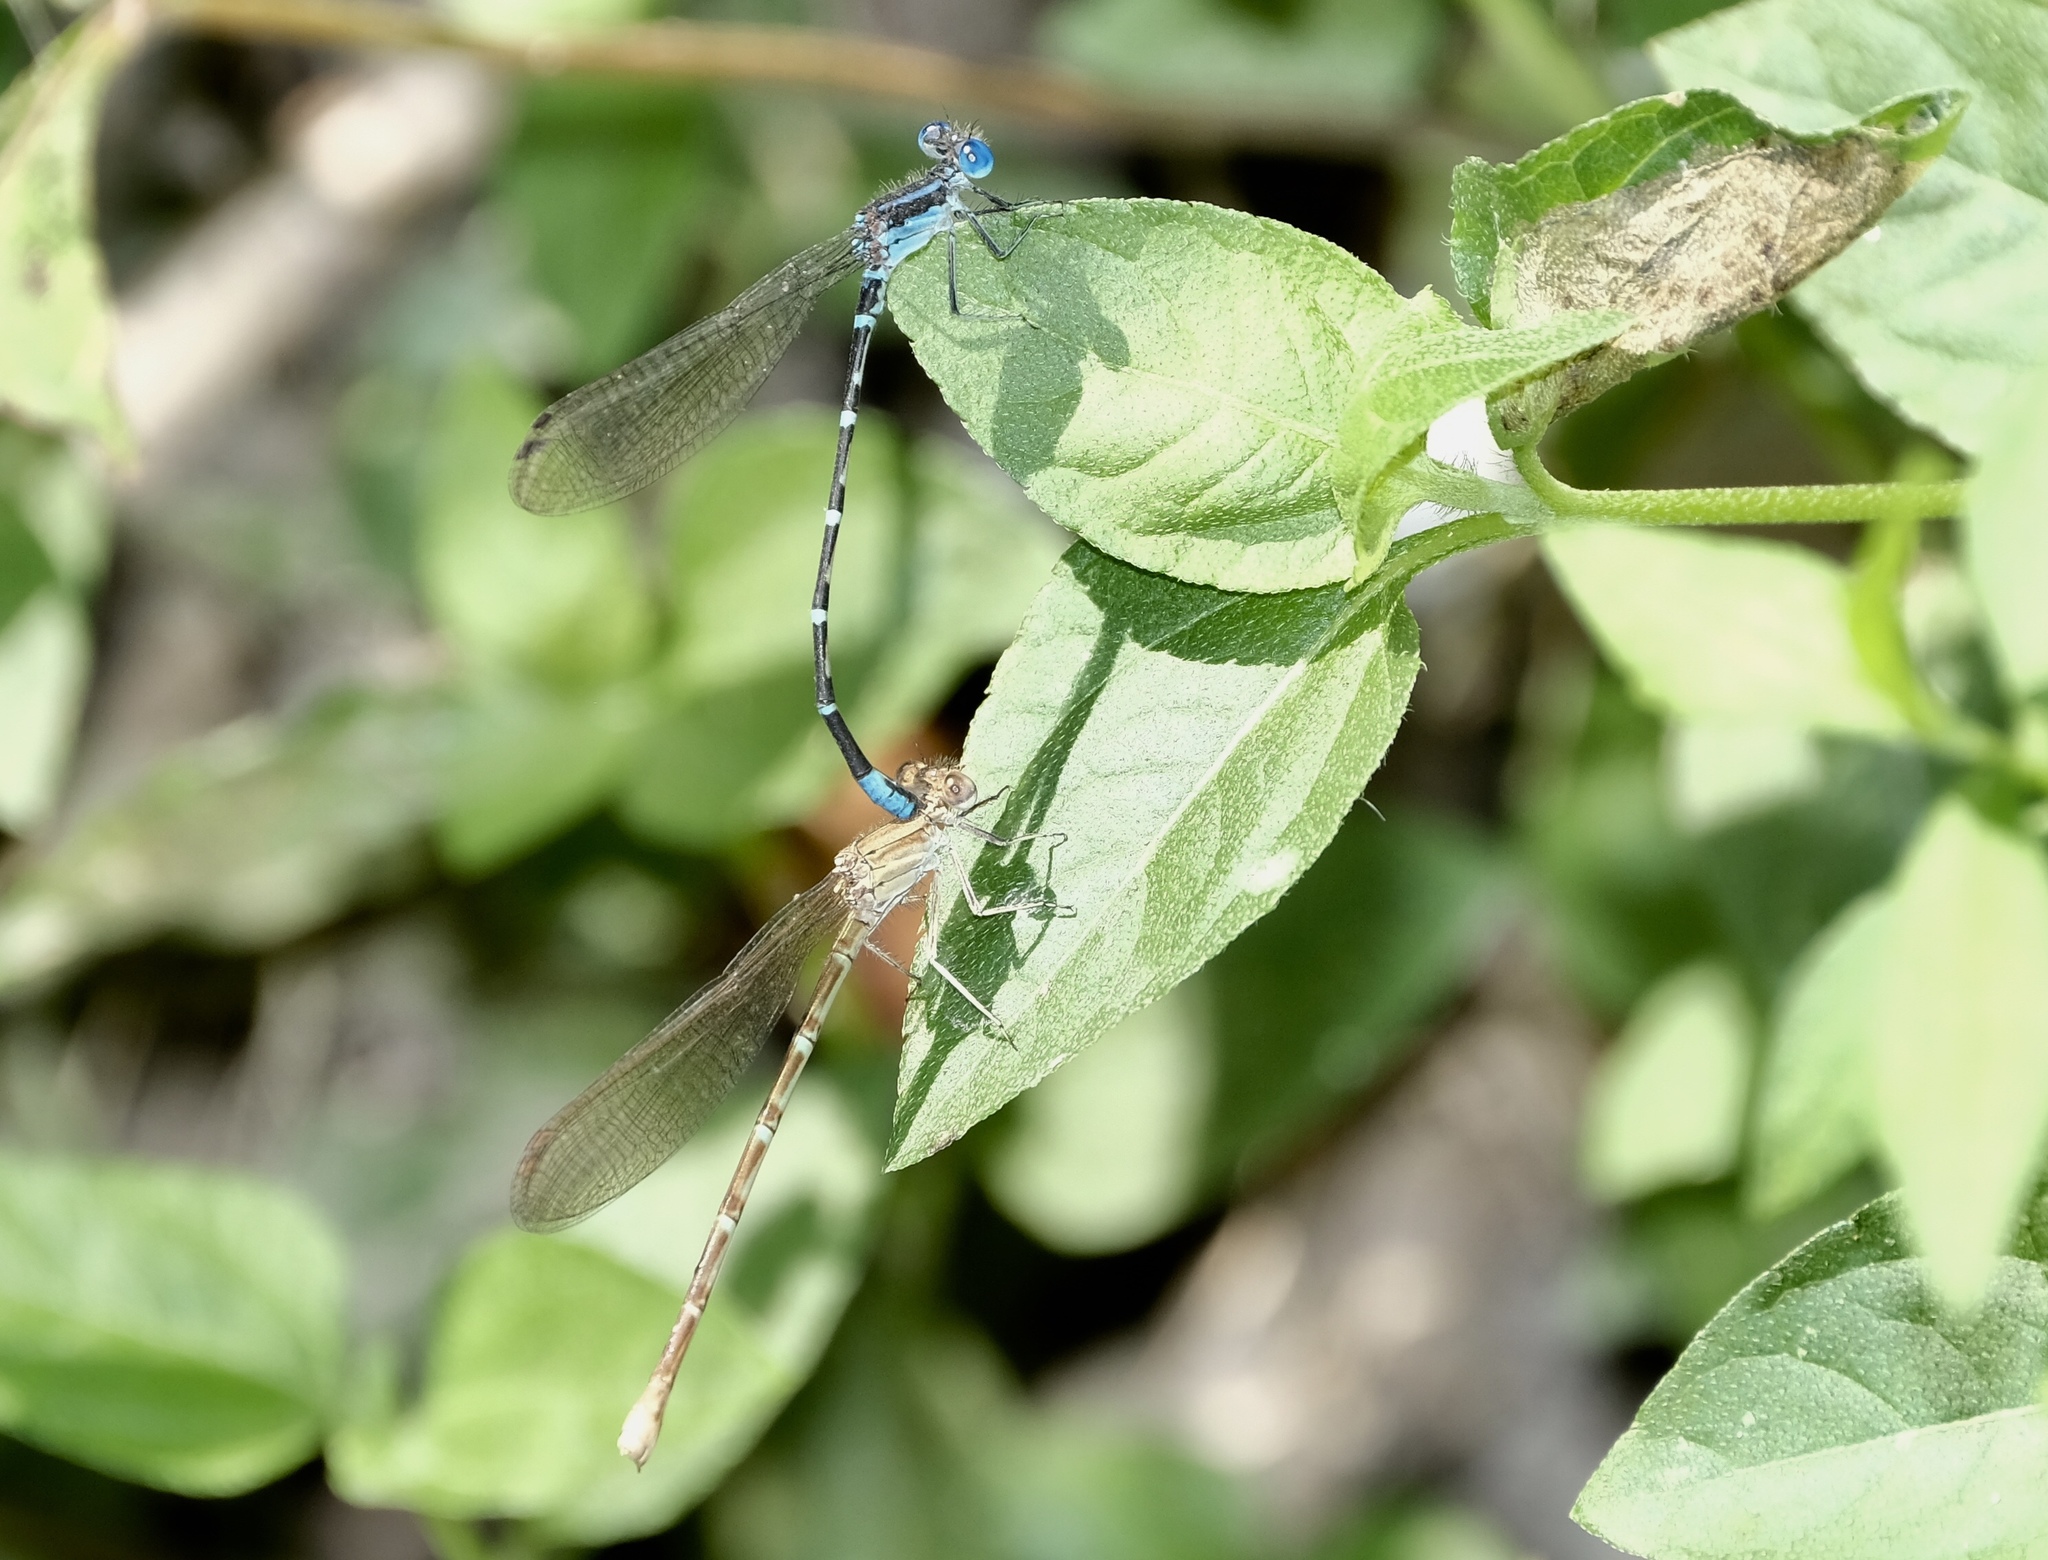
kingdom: Animalia
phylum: Arthropoda
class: Insecta
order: Odonata
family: Coenagrionidae
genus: Argia
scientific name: Argia sedula
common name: Blue-ringed dancer
